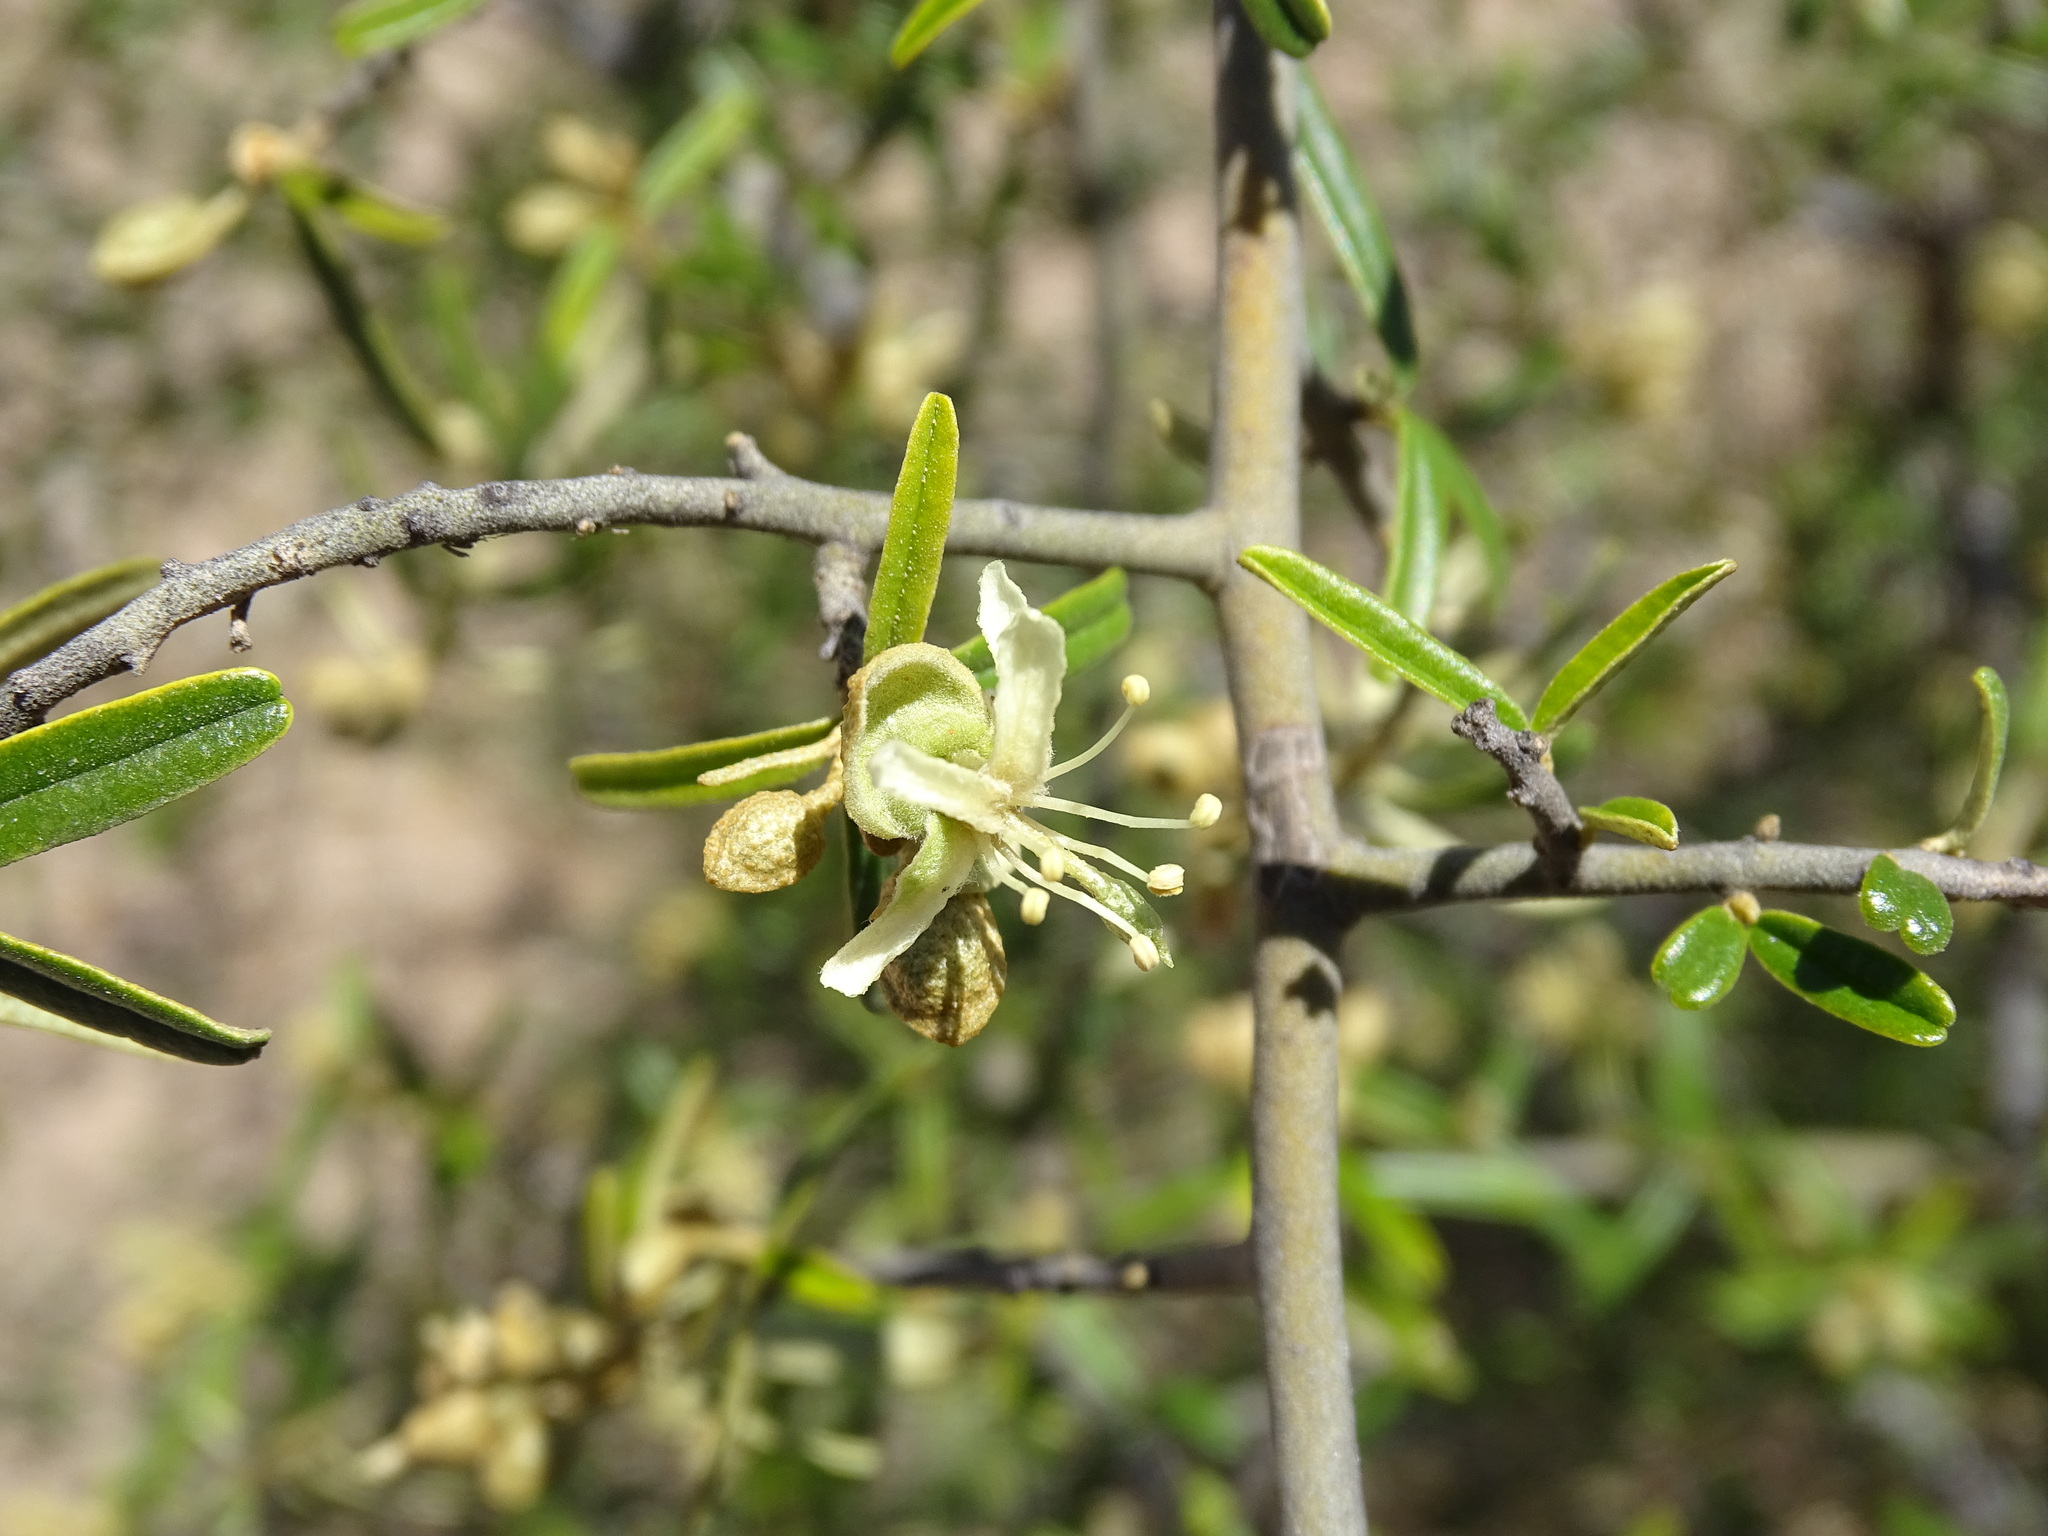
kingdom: Plantae
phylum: Tracheophyta
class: Magnoliopsida
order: Brassicales
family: Capparaceae
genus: Atamisquea
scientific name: Atamisquea emarginata
